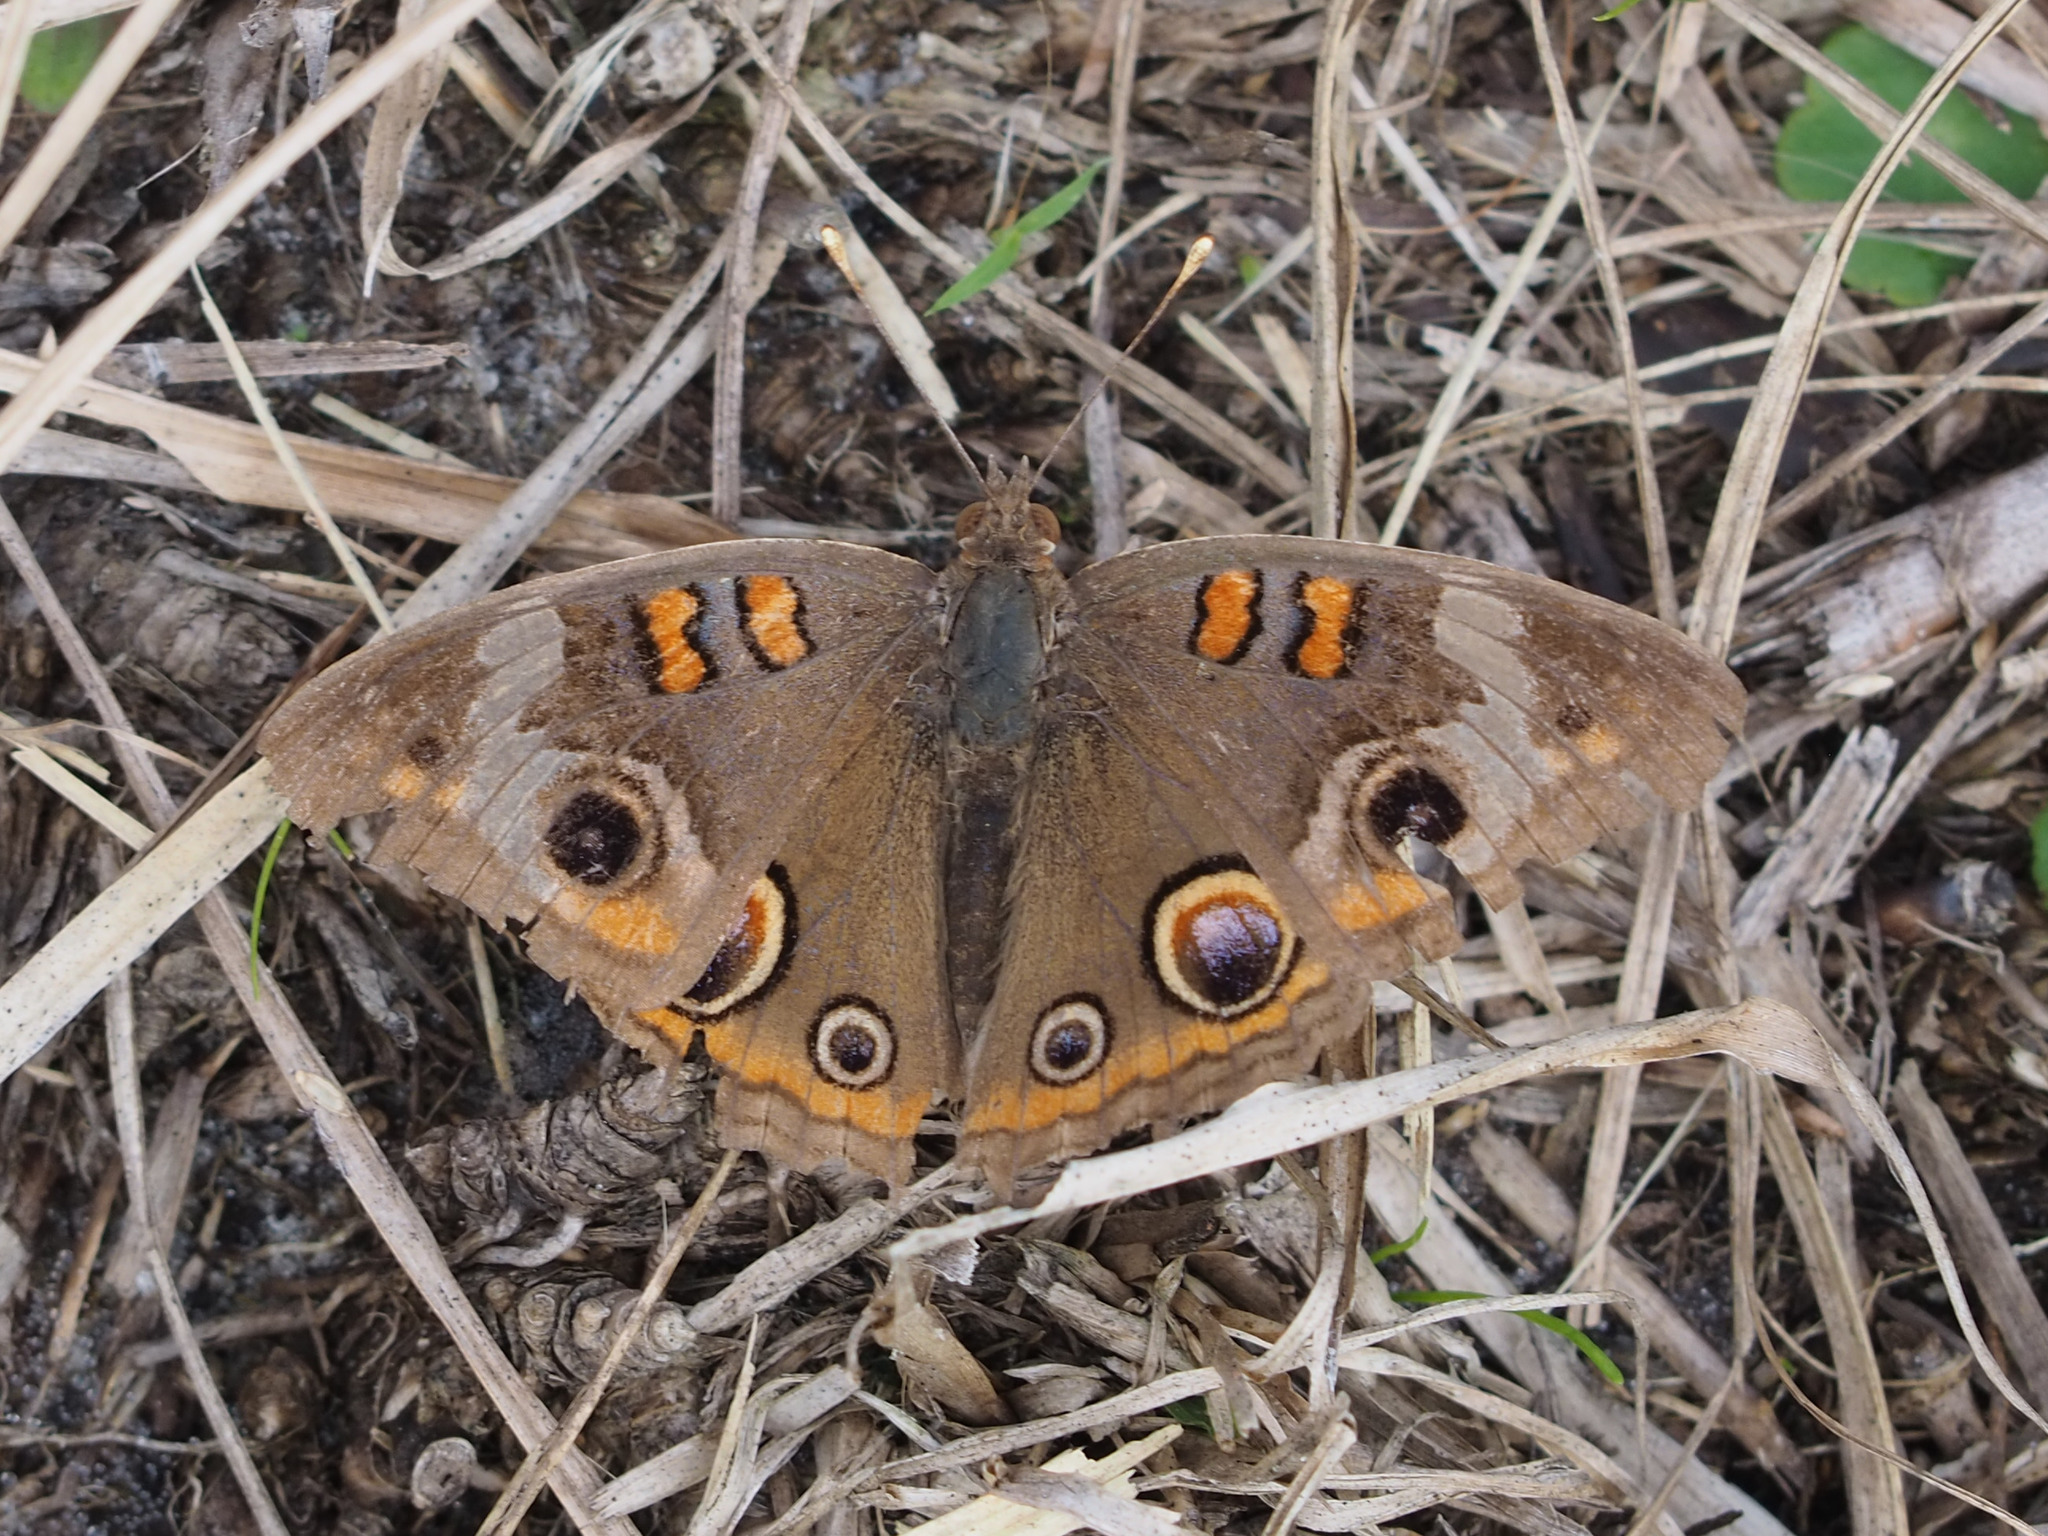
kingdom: Animalia
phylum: Arthropoda
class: Insecta
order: Lepidoptera
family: Nymphalidae
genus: Junonia
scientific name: Junonia coenia
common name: Common buckeye
